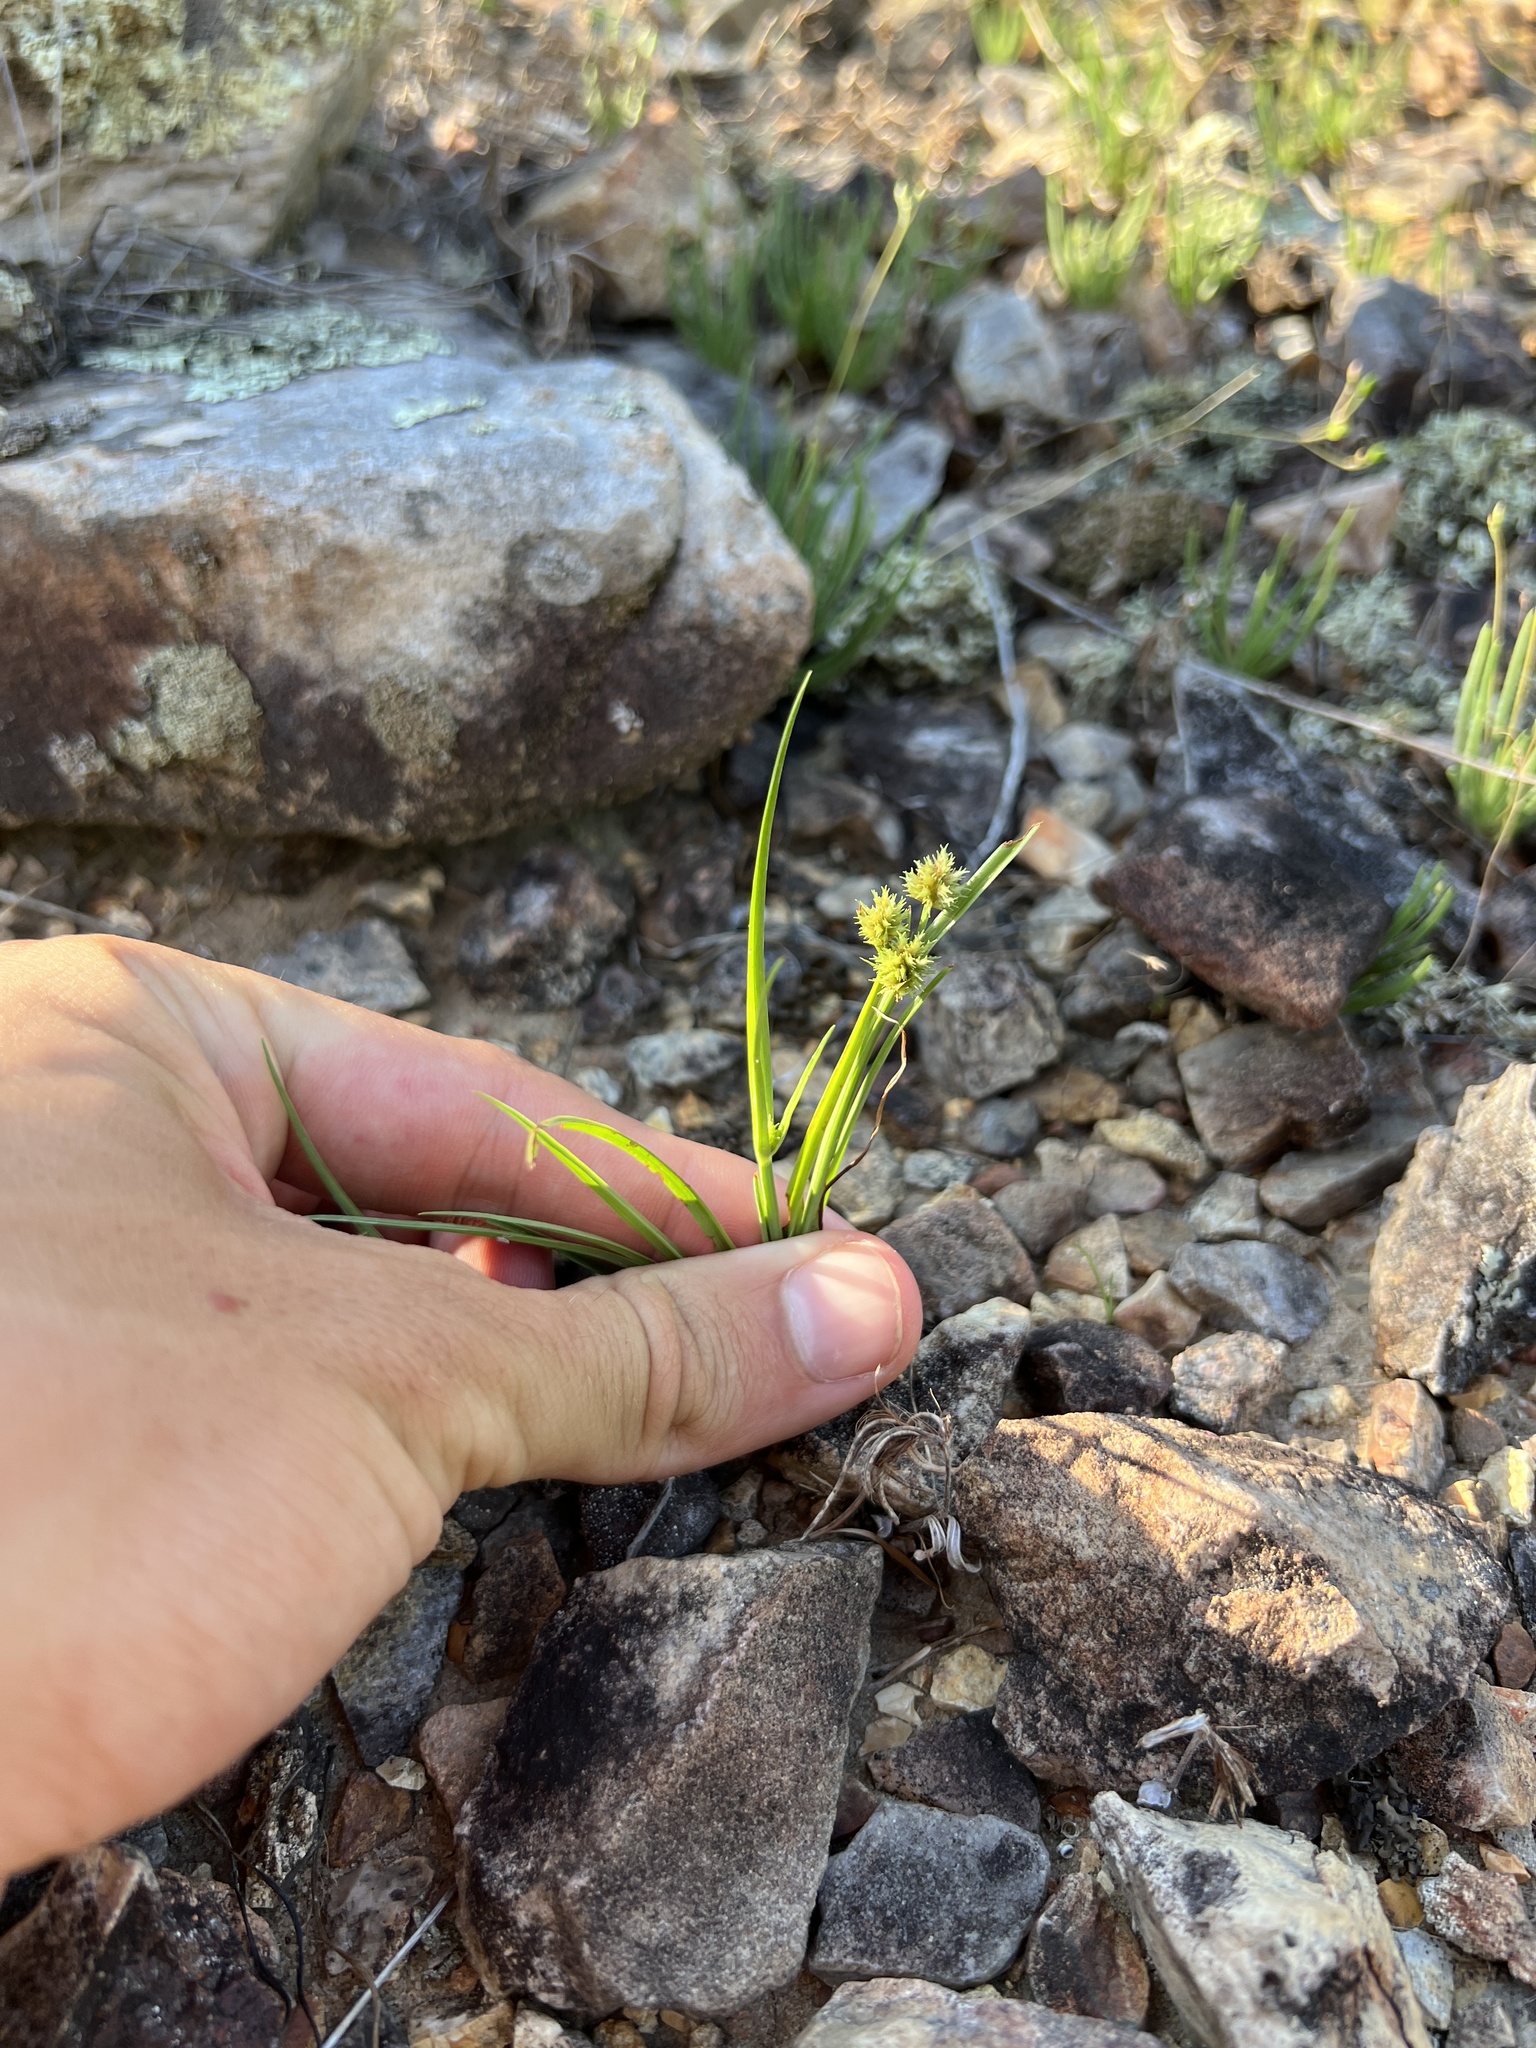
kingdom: Plantae
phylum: Tracheophyta
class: Liliopsida
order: Poales
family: Cyperaceae
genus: Cyperus
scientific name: Cyperus squarrosus
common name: Awned cyperus
